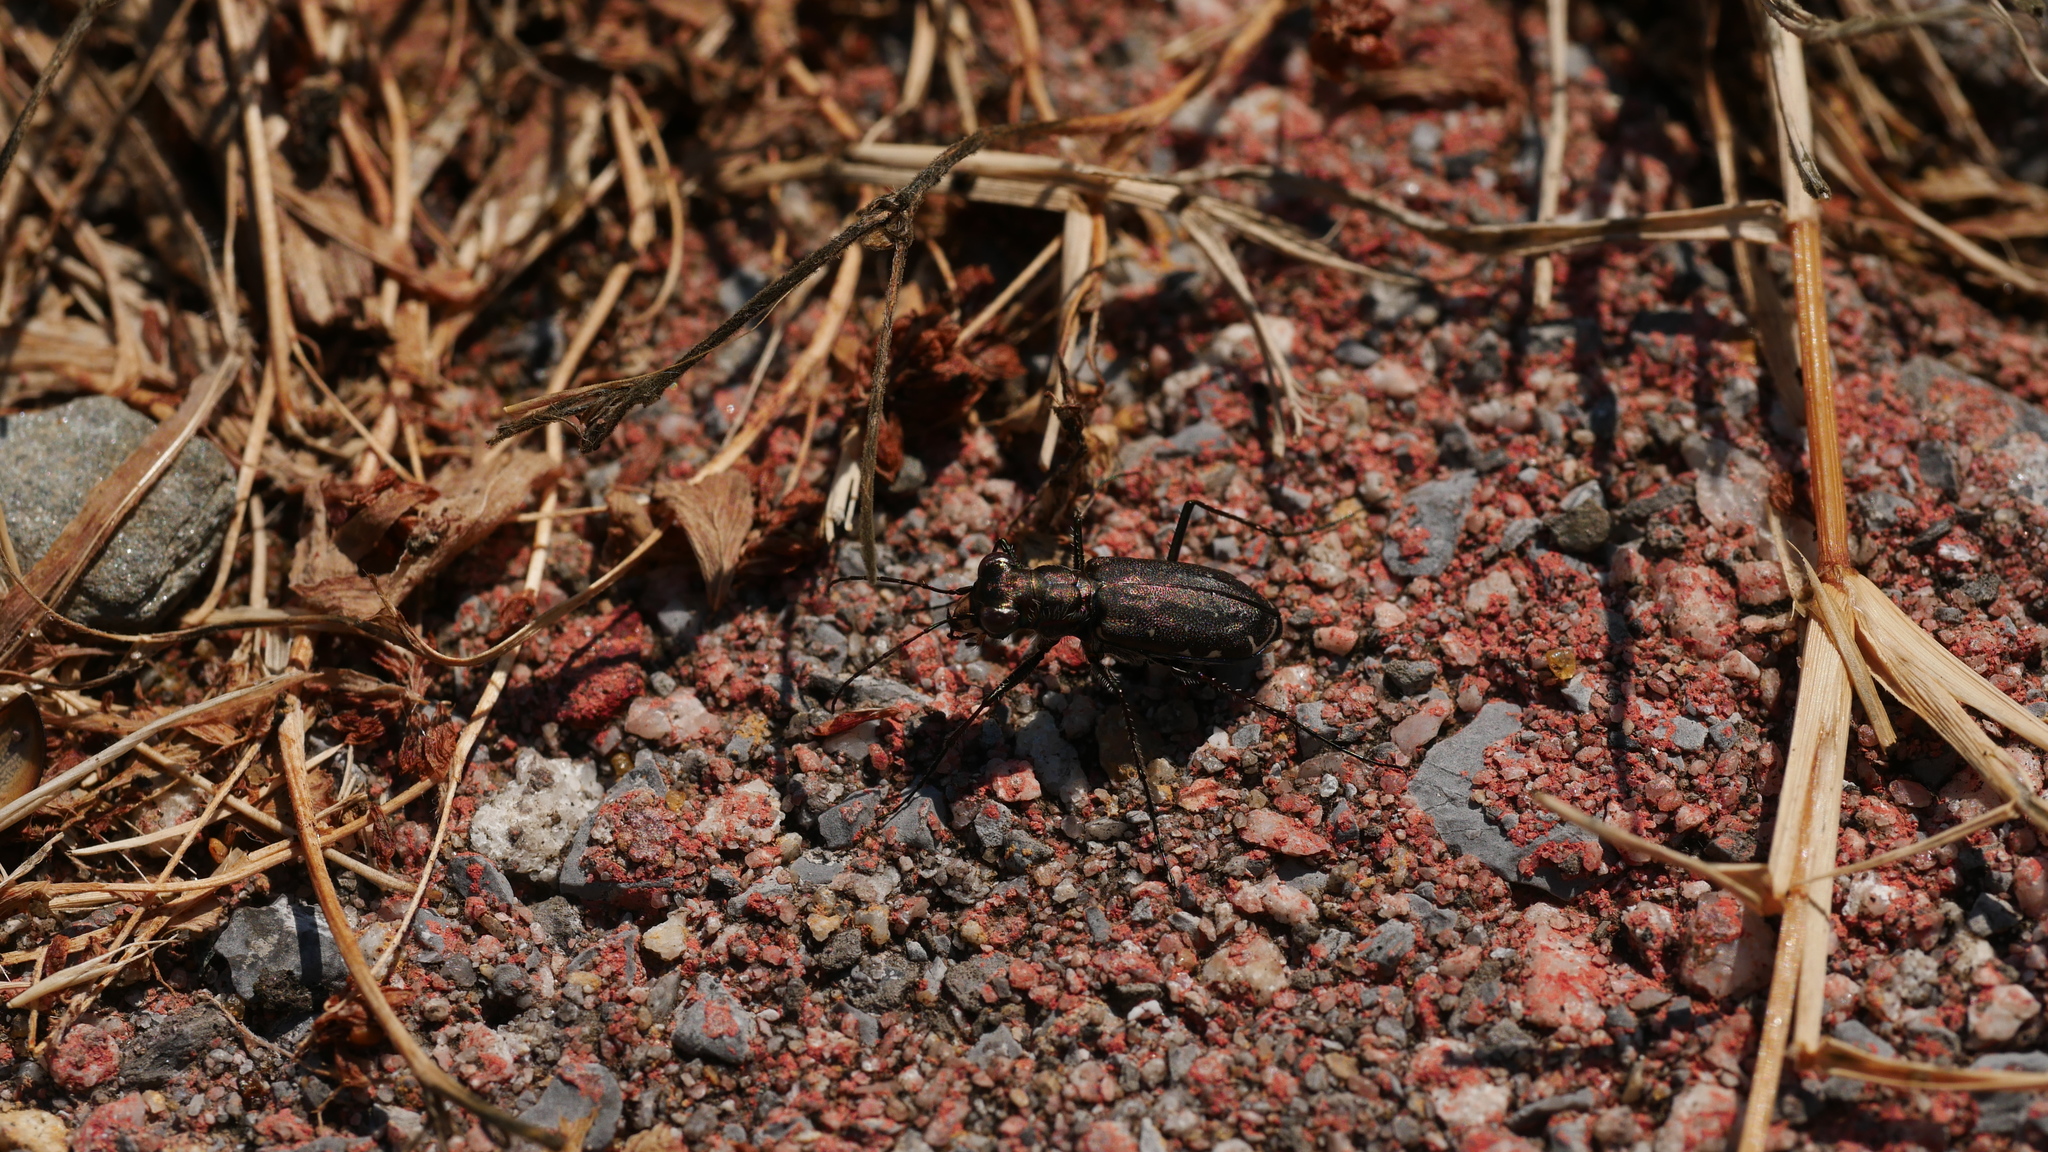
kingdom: Animalia
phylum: Arthropoda
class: Insecta
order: Coleoptera
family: Carabidae
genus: Cicindela
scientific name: Cicindela punctulata
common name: Punctured tiger beetle
